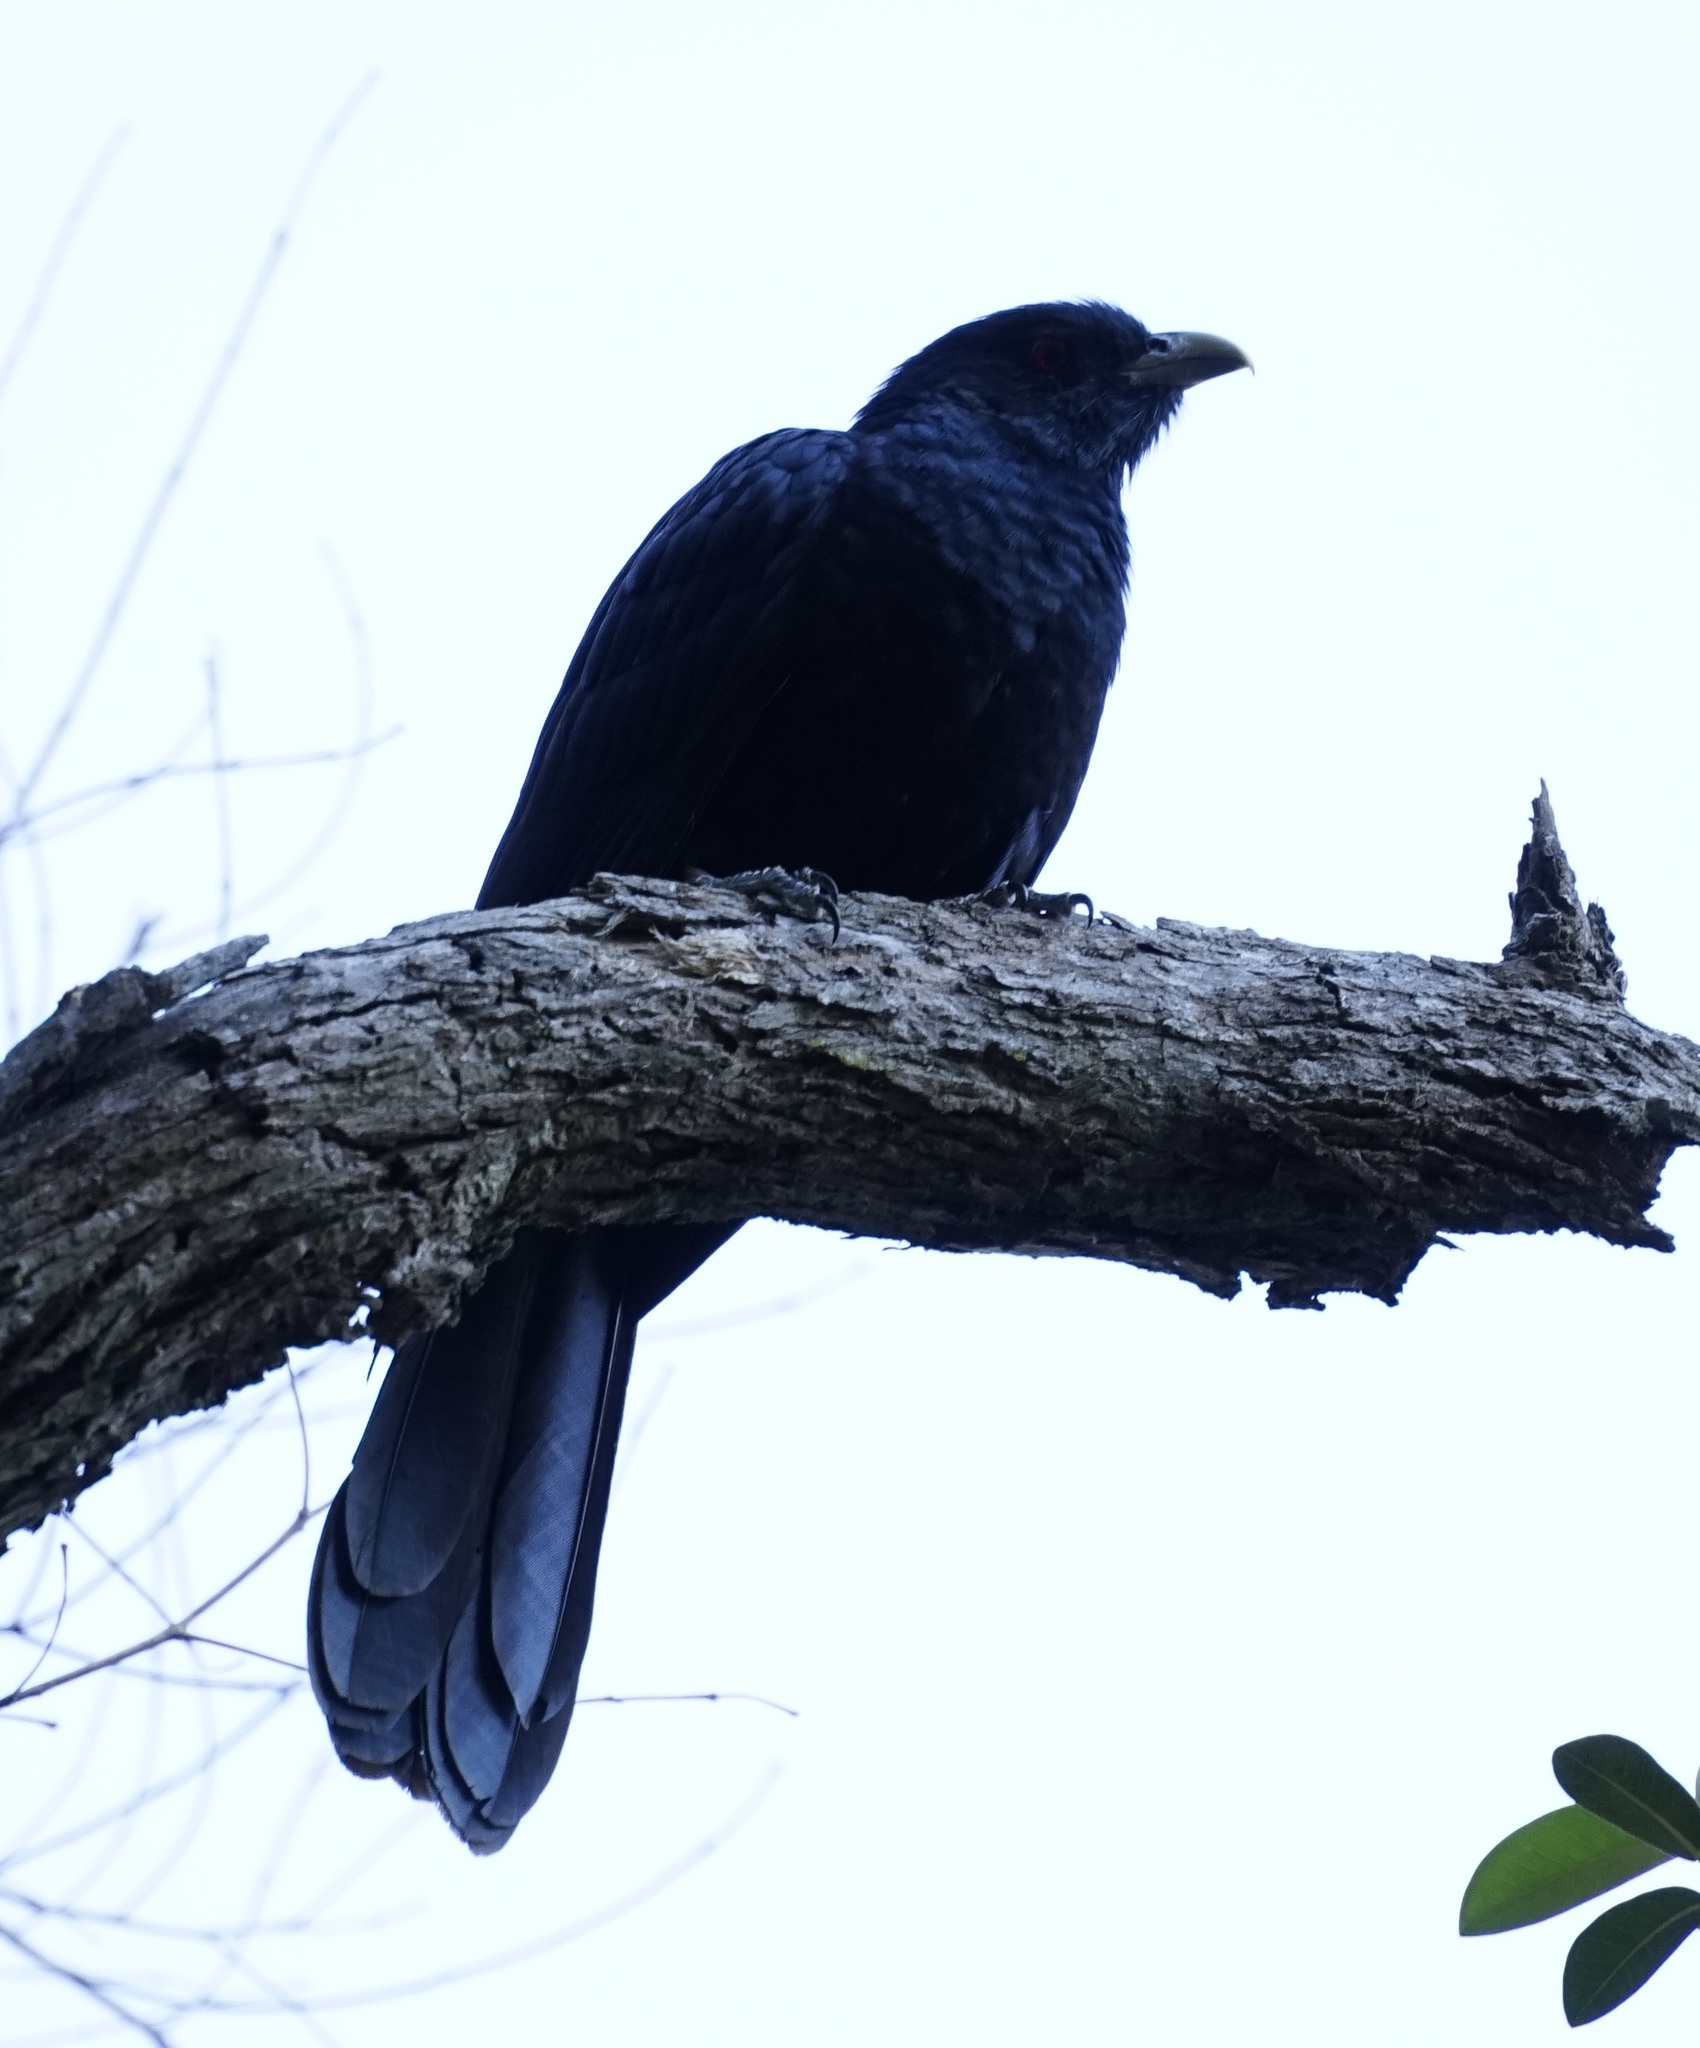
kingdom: Animalia
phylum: Chordata
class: Aves
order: Cuculiformes
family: Cuculidae
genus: Eudynamys
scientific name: Eudynamys orientalis
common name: Pacific koel
